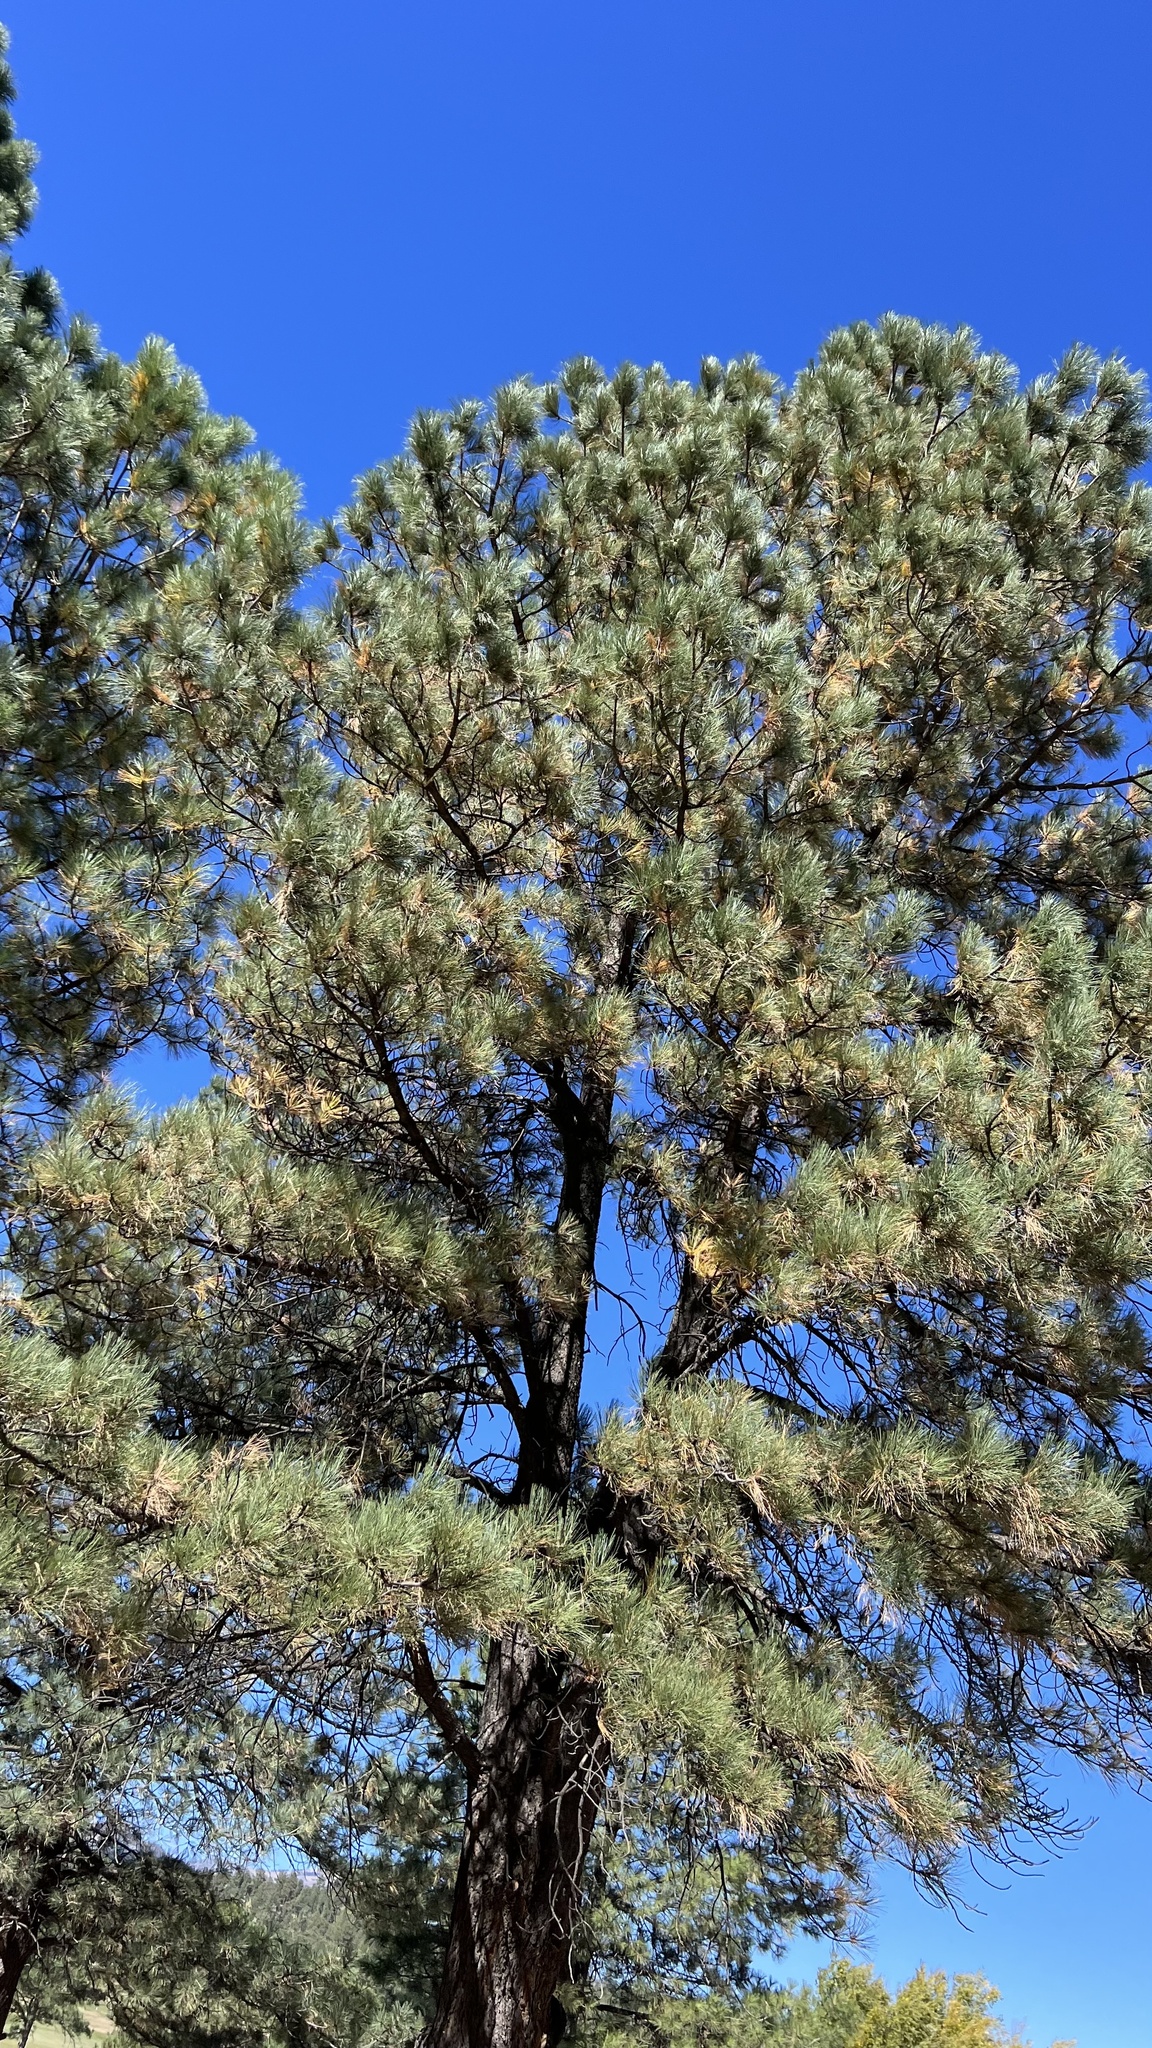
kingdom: Plantae
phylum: Tracheophyta
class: Pinopsida
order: Pinales
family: Pinaceae
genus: Pinus
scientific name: Pinus ponderosa
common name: Western yellow-pine
